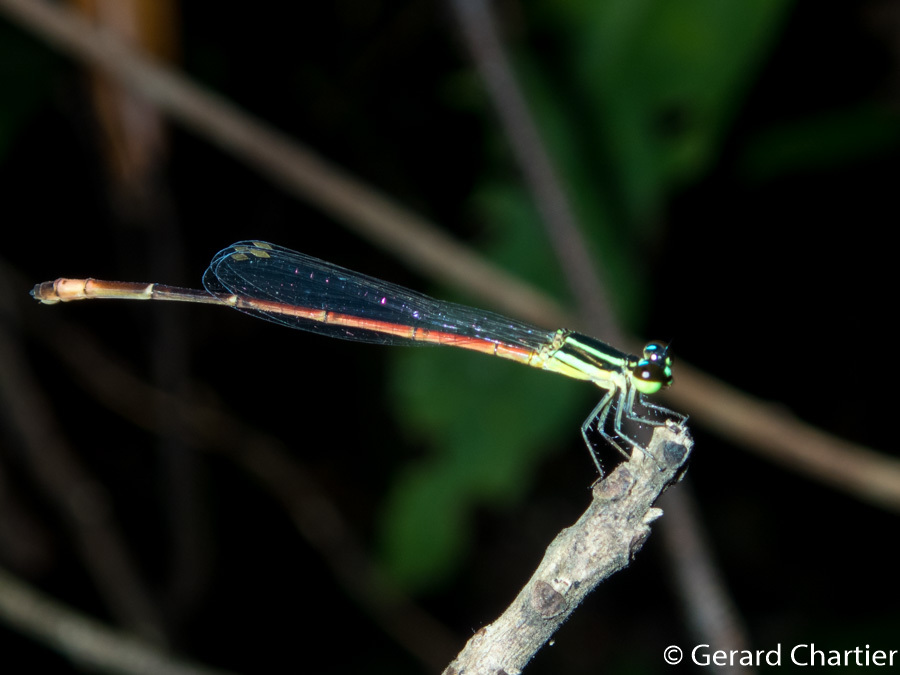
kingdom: Animalia
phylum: Arthropoda
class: Insecta
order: Odonata
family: Coenagrionidae
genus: Argiocnemis
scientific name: Argiocnemis rubescens
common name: Red-tipped shadefly
